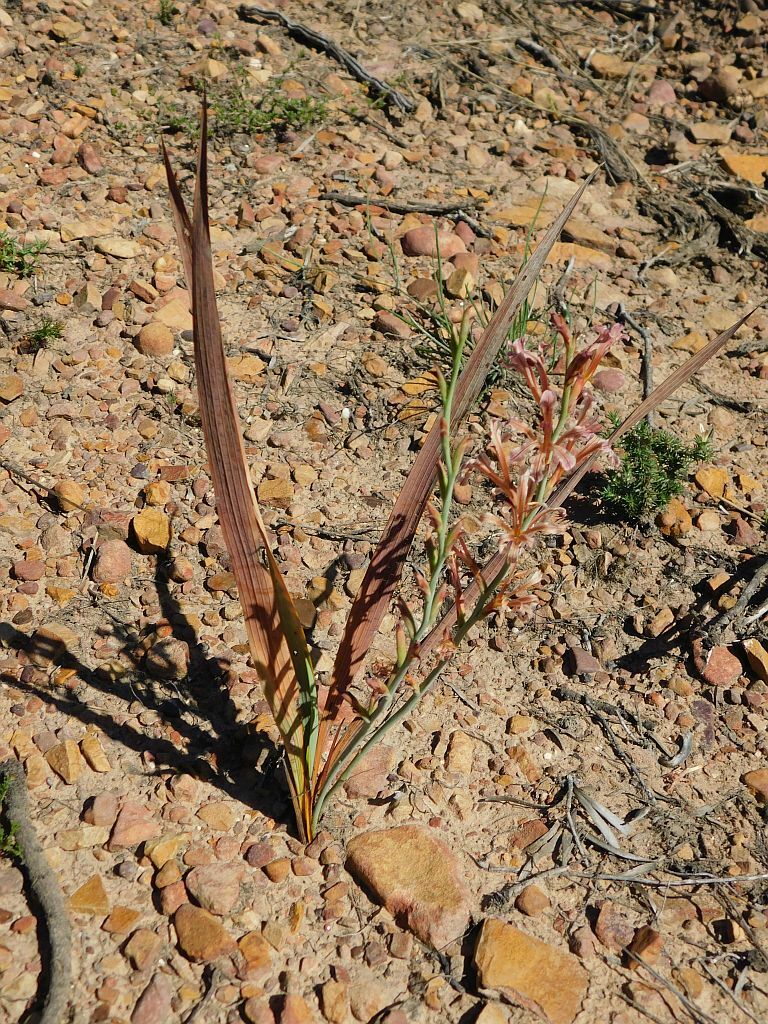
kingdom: Plantae
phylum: Tracheophyta
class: Liliopsida
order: Asparagales
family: Iridaceae
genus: Tritoniopsis
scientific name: Tritoniopsis elongata
